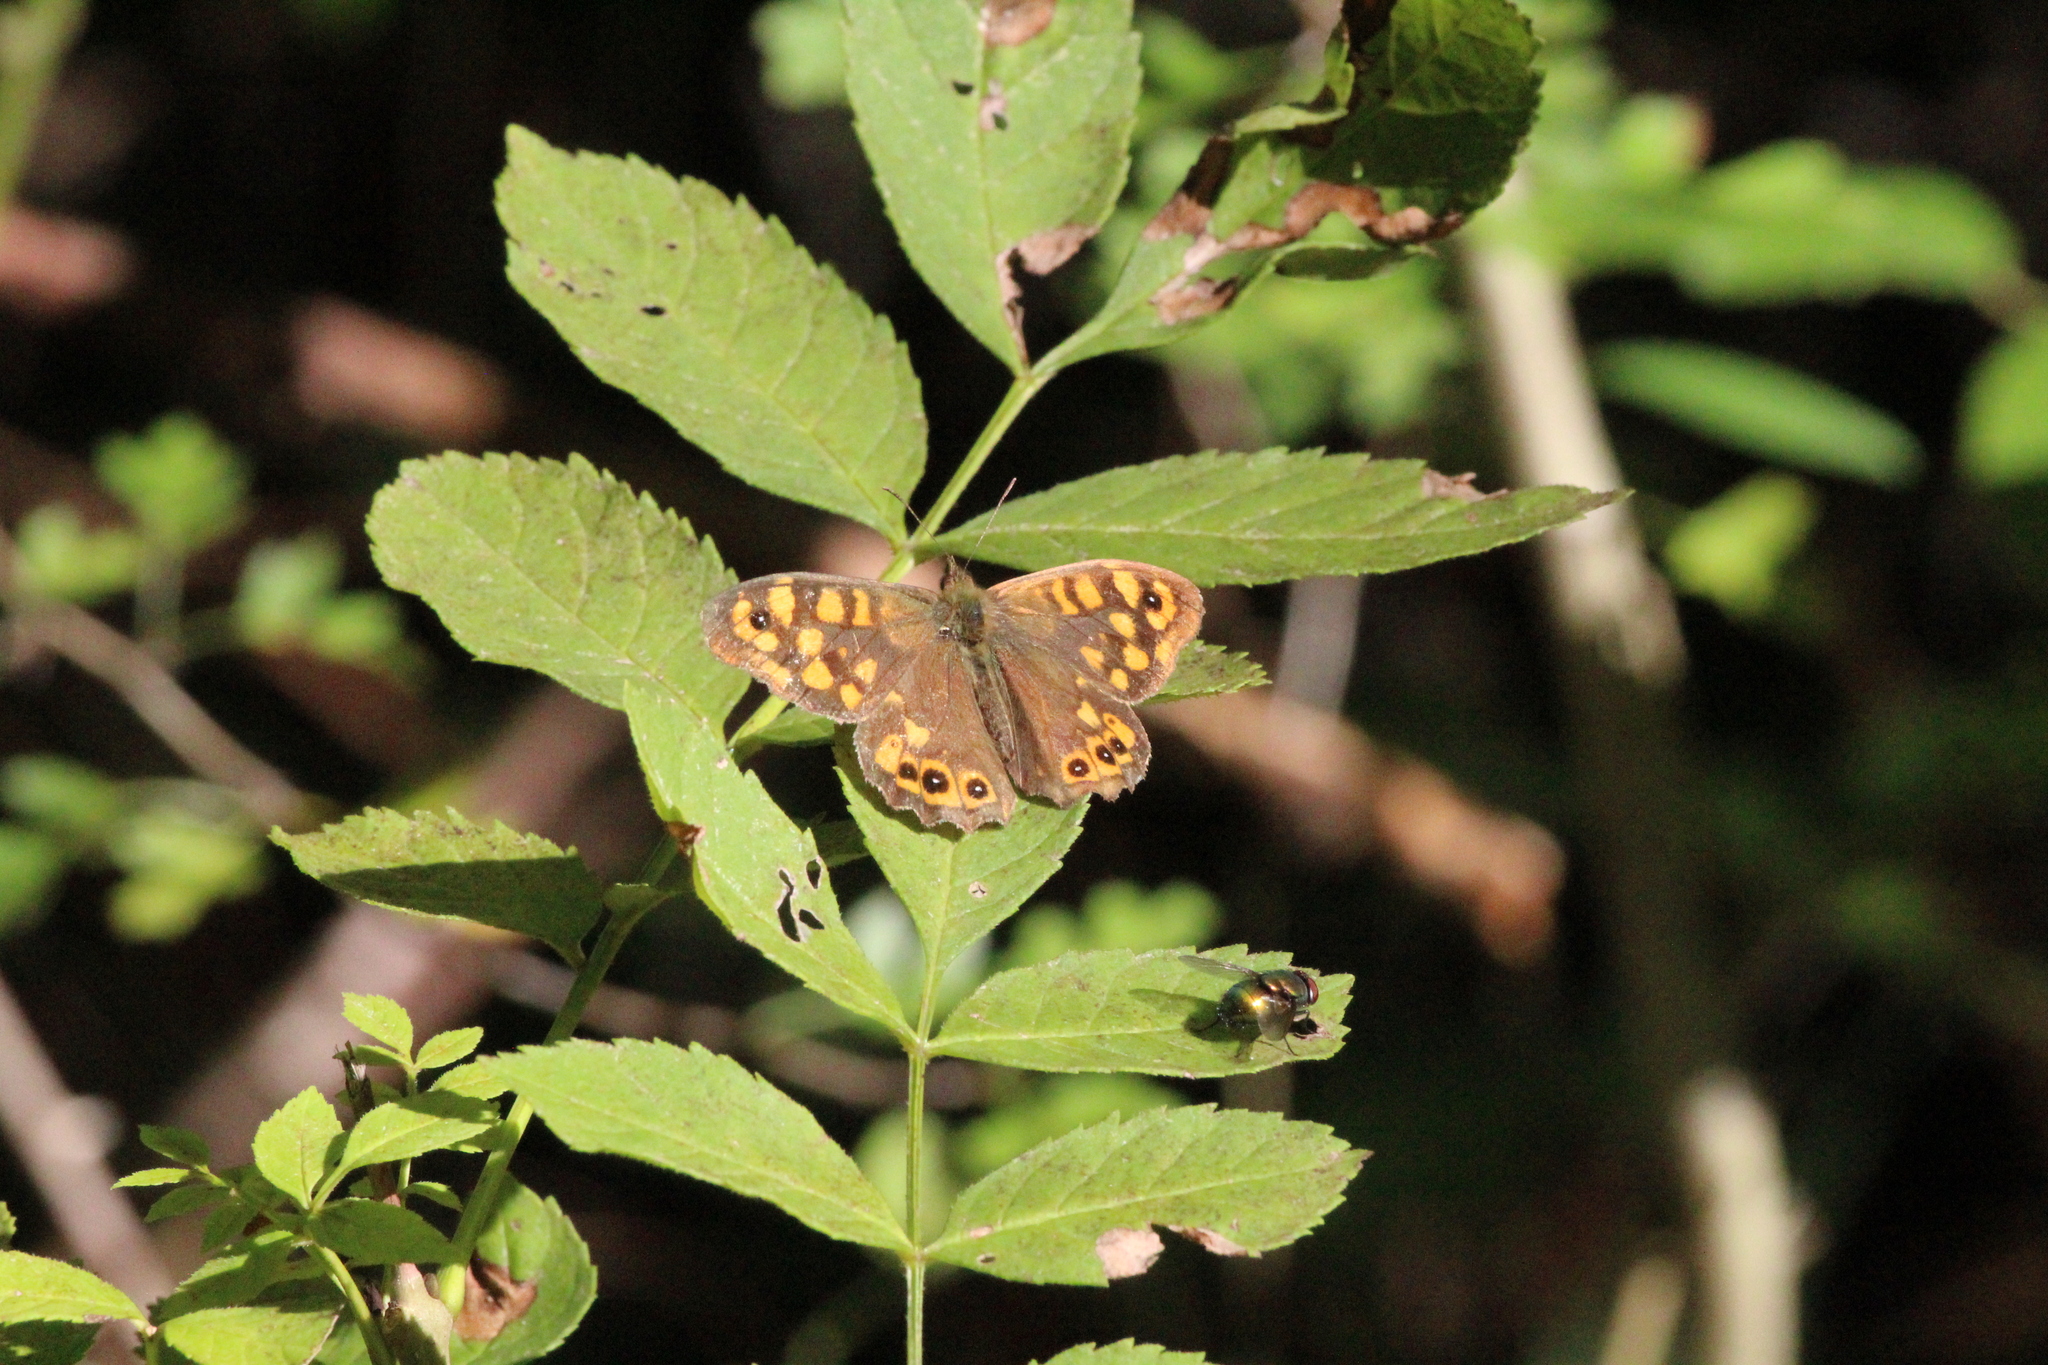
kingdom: Animalia
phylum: Arthropoda
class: Insecta
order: Lepidoptera
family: Nymphalidae
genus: Pararge
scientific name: Pararge aegeria
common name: Speckled wood
